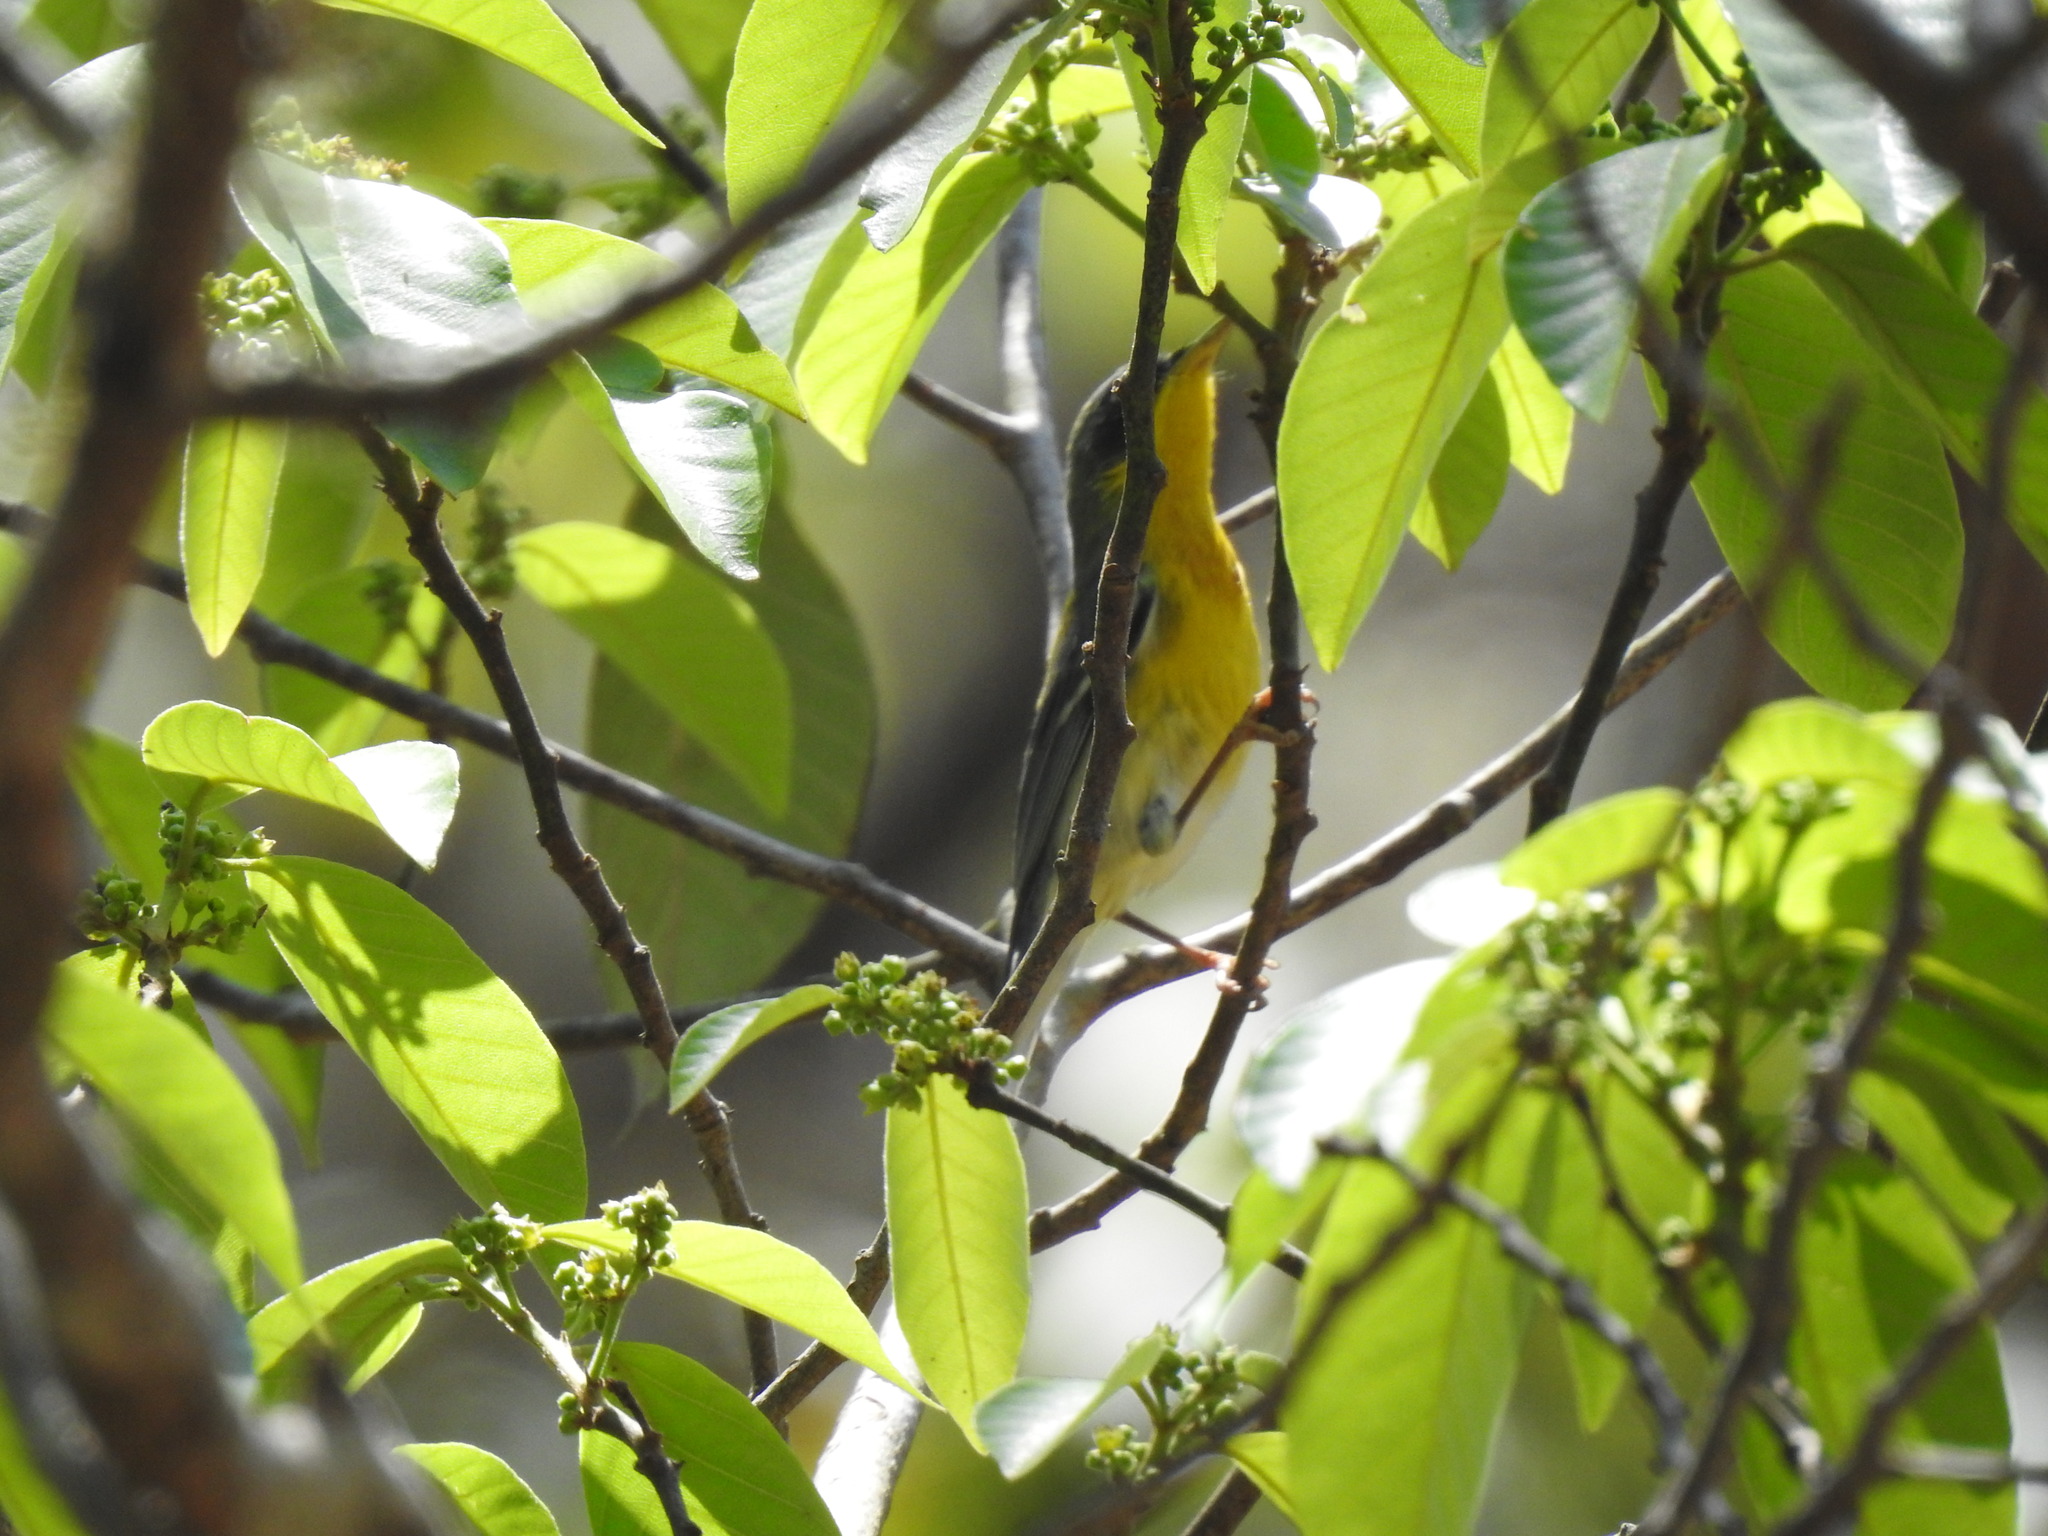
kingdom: Animalia
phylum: Chordata
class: Aves
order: Passeriformes
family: Parulidae
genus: Setophaga
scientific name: Setophaga pitiayumi
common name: Tropical parula
